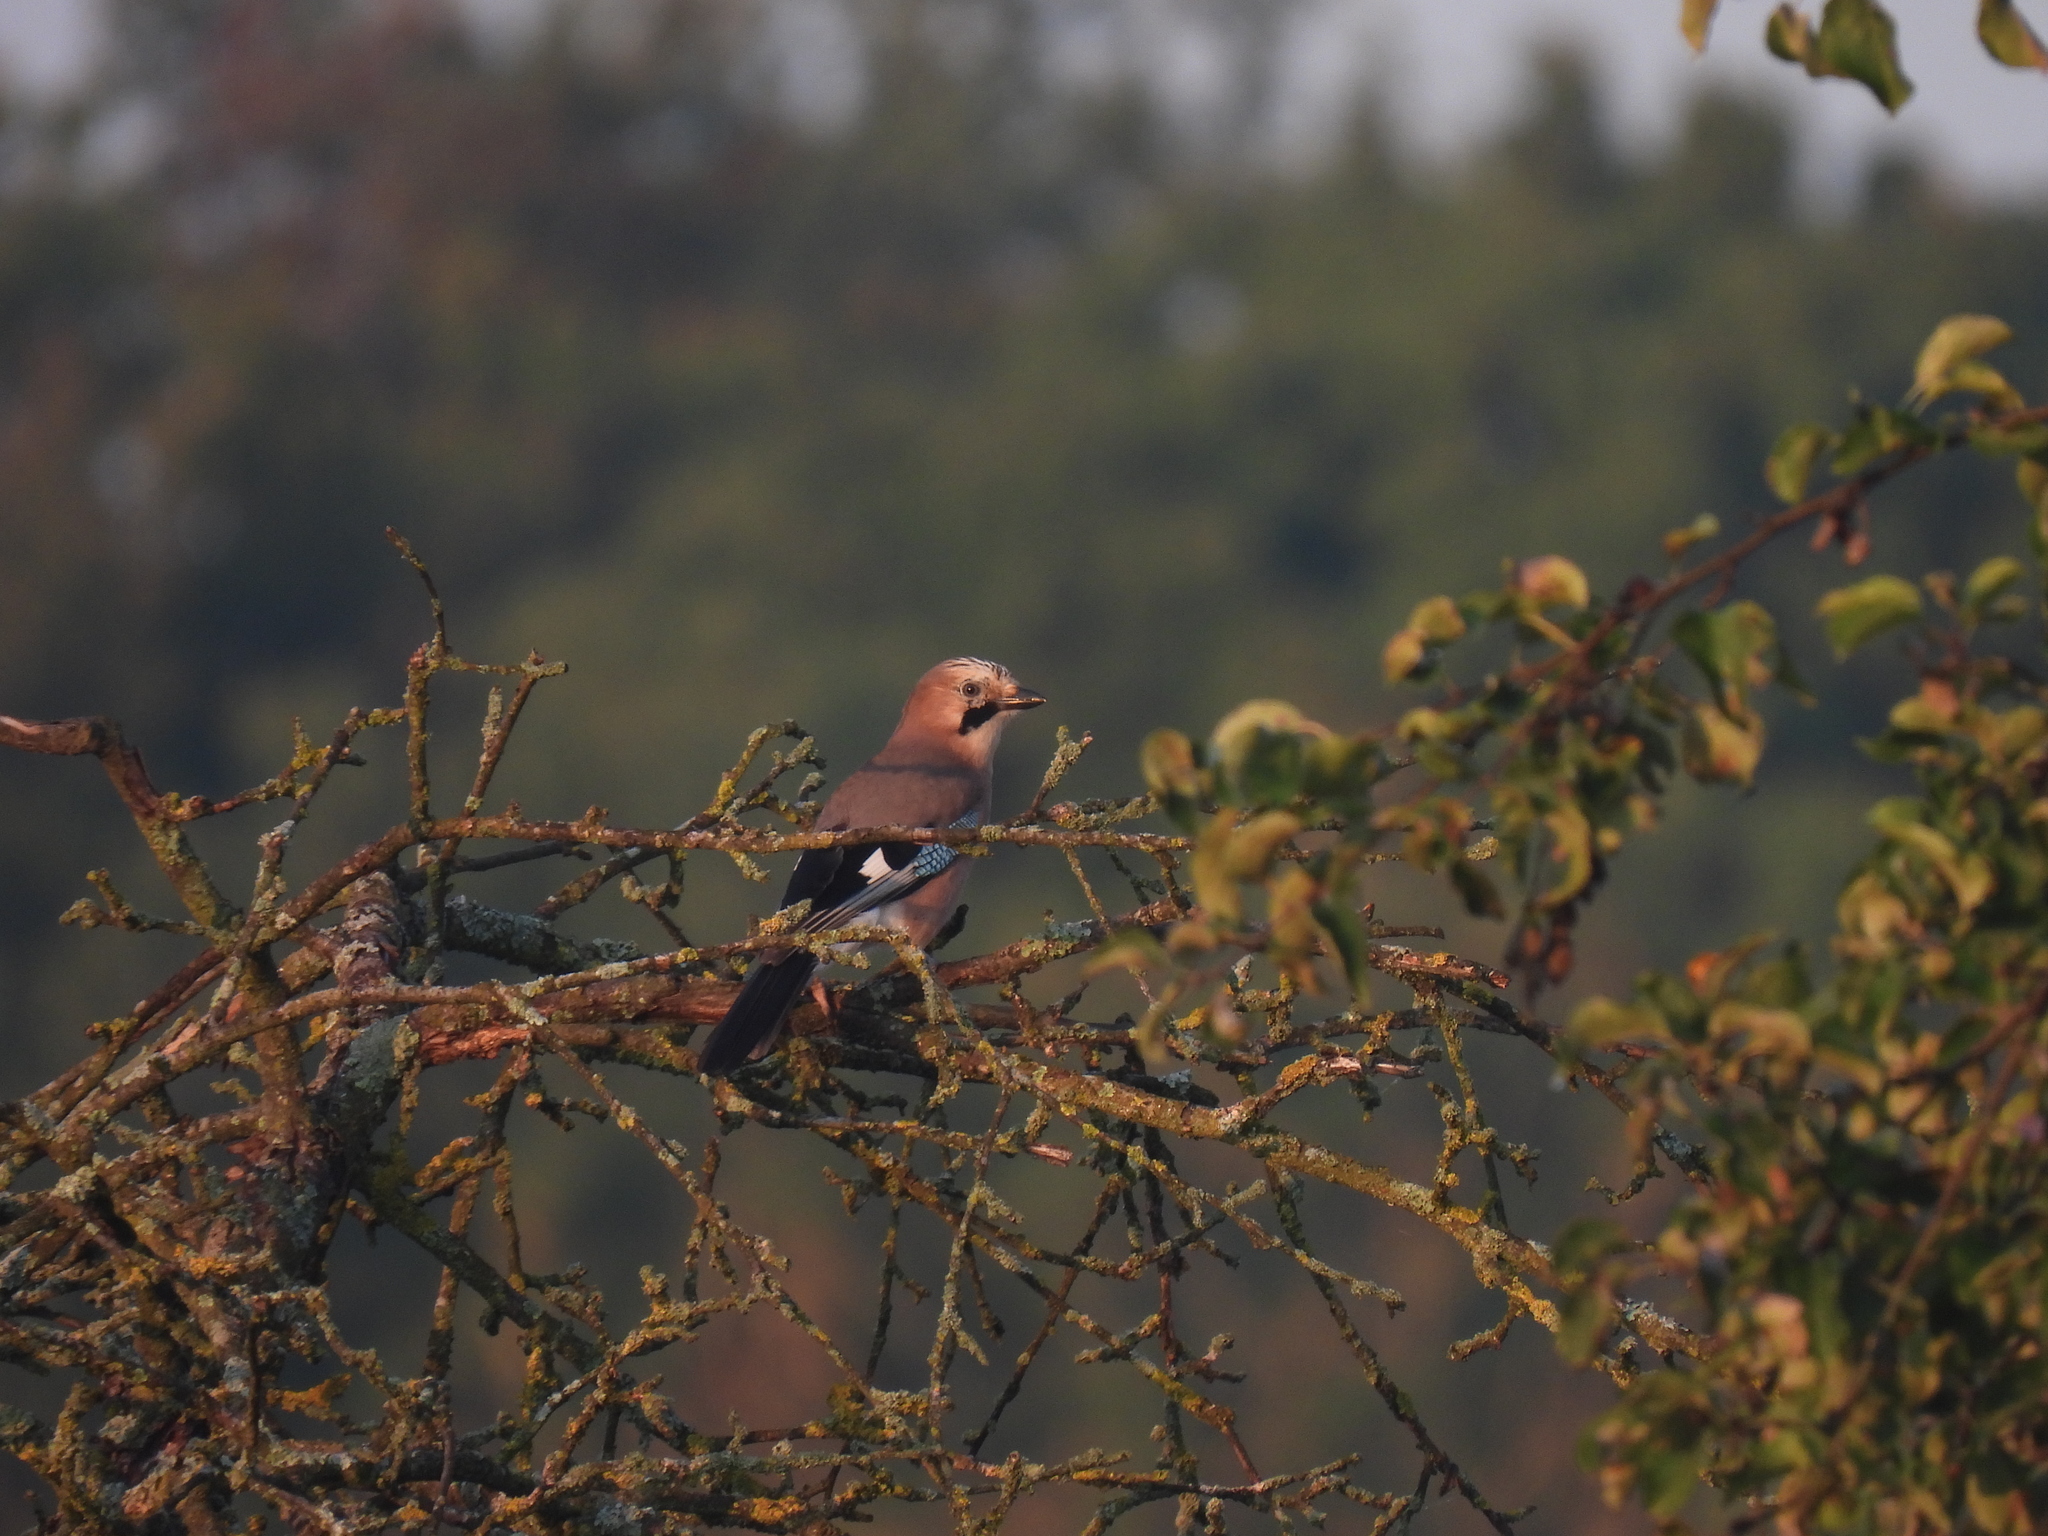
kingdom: Animalia
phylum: Chordata
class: Aves
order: Passeriformes
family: Corvidae
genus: Garrulus
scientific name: Garrulus glandarius
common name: Eurasian jay
